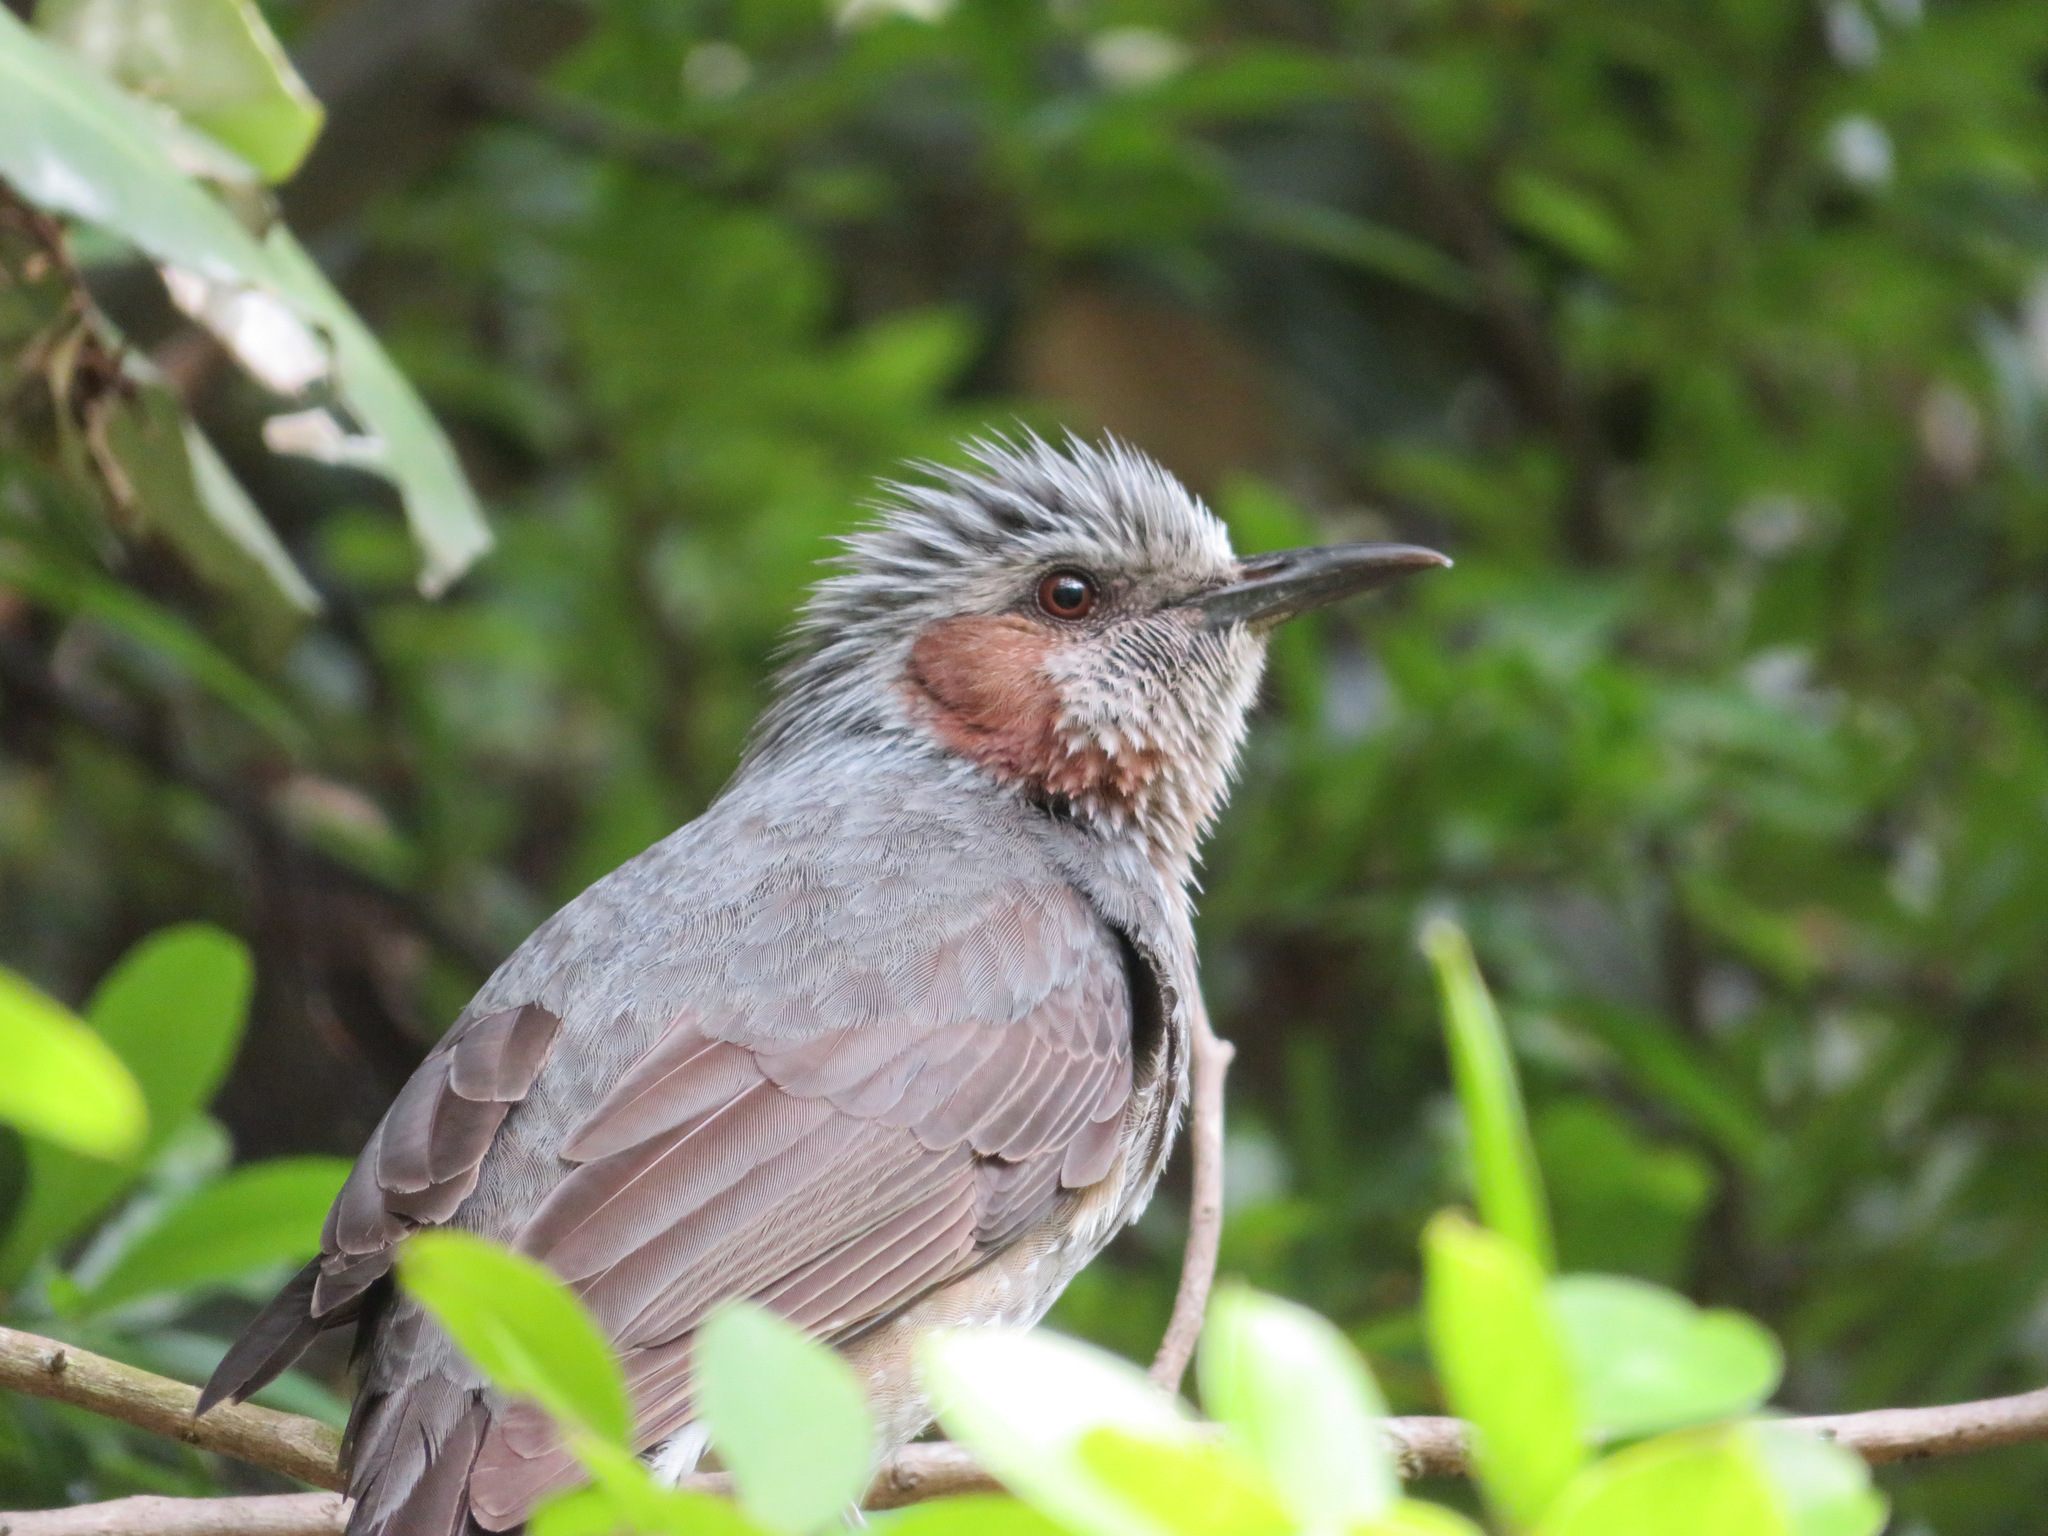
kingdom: Animalia
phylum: Chordata
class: Aves
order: Passeriformes
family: Pycnonotidae
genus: Hypsipetes
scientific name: Hypsipetes amaurotis
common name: Brown-eared bulbul
